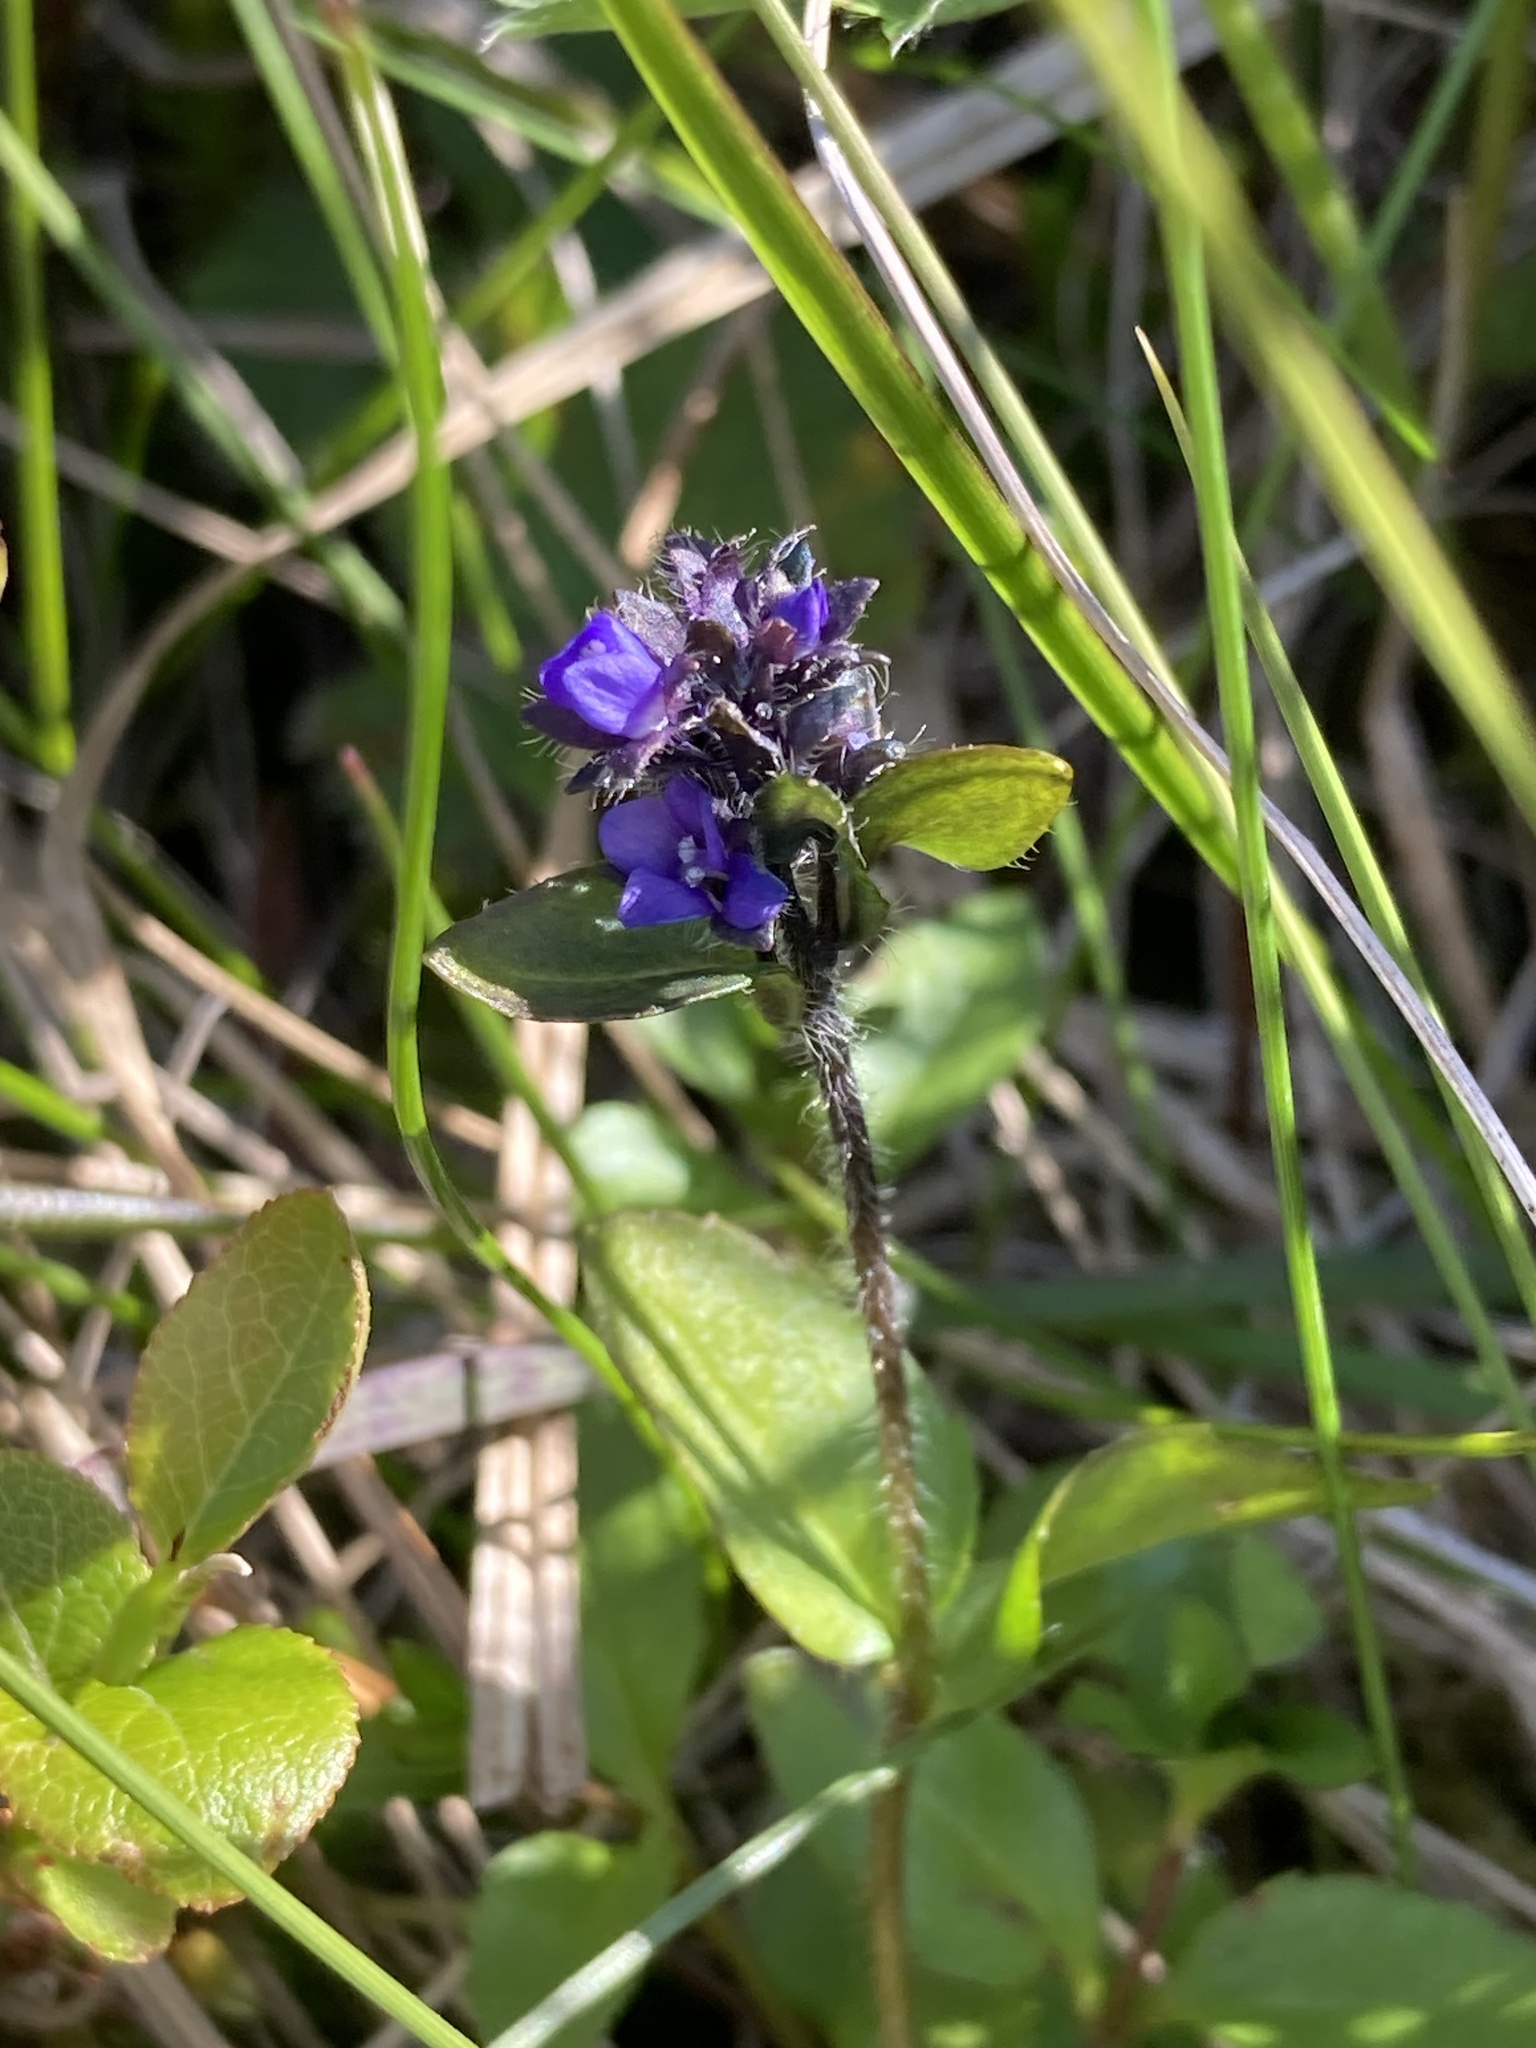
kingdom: Plantae
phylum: Tracheophyta
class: Magnoliopsida
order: Lamiales
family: Plantaginaceae
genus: Veronica
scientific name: Veronica alpina
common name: Alpine speedwell
